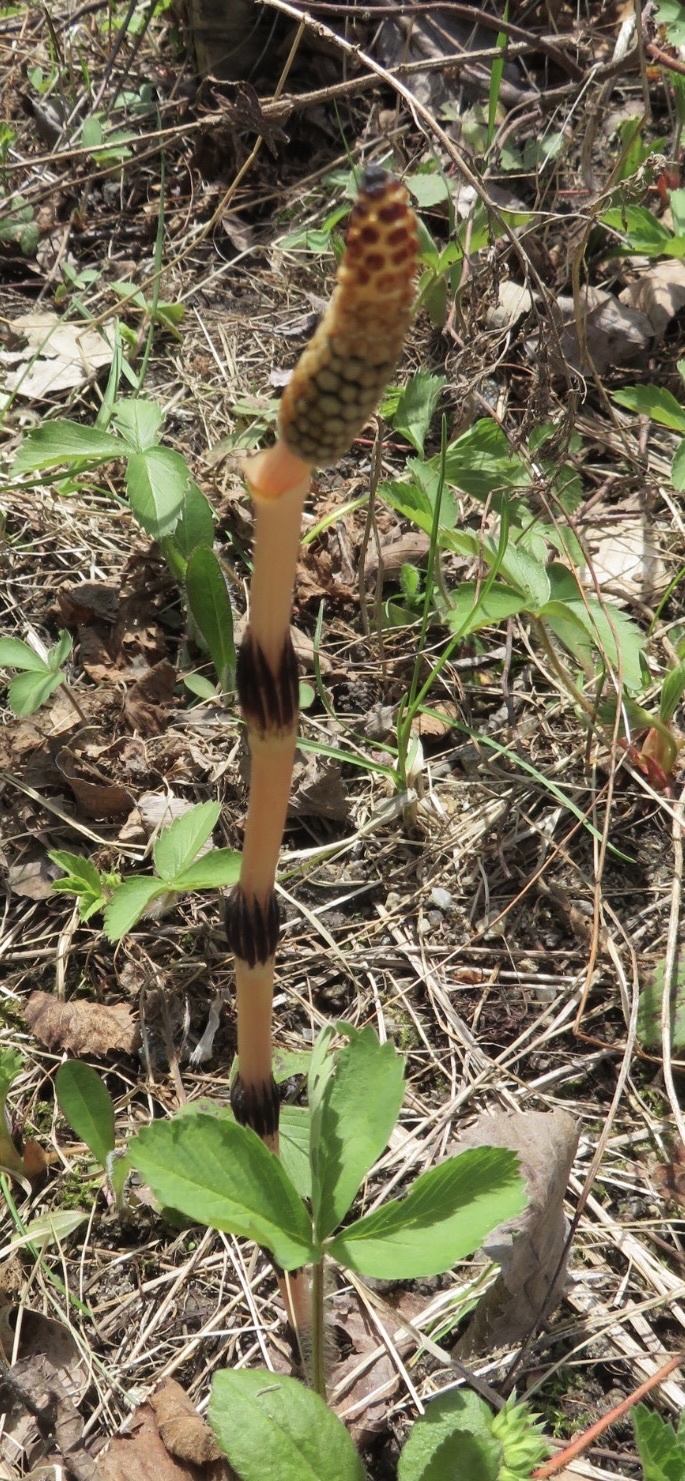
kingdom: Plantae
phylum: Tracheophyta
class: Polypodiopsida
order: Equisetales
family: Equisetaceae
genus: Equisetum
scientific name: Equisetum arvense
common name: Field horsetail
